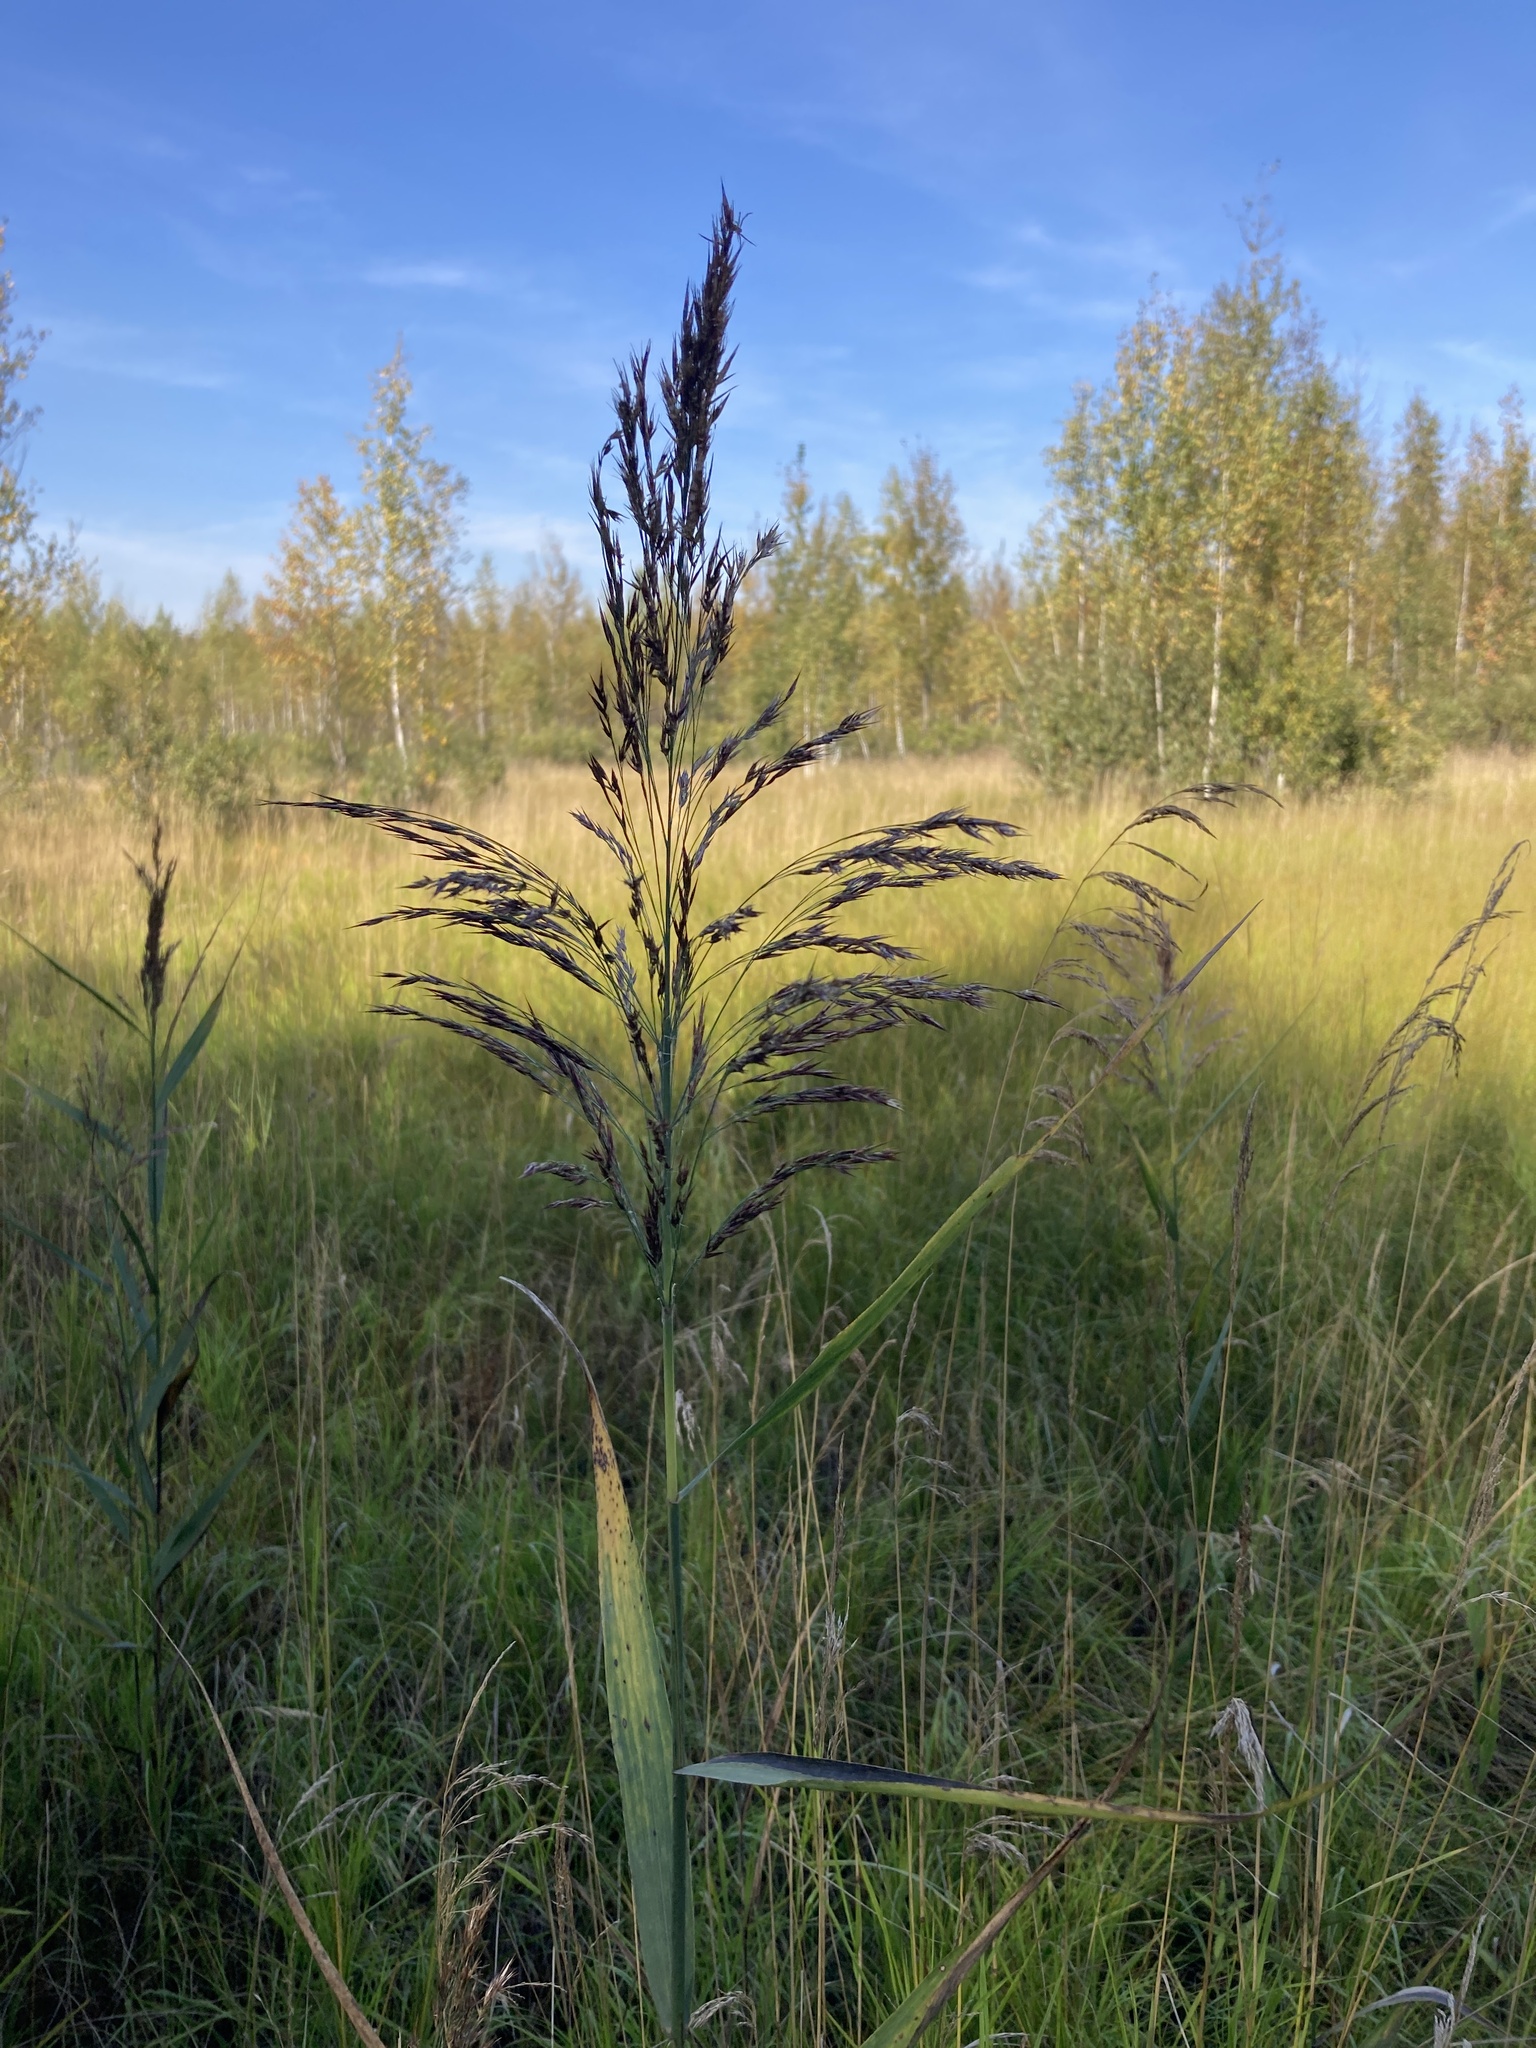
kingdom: Plantae
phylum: Tracheophyta
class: Liliopsida
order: Poales
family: Poaceae
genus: Phragmites
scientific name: Phragmites australis
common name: Common reed
